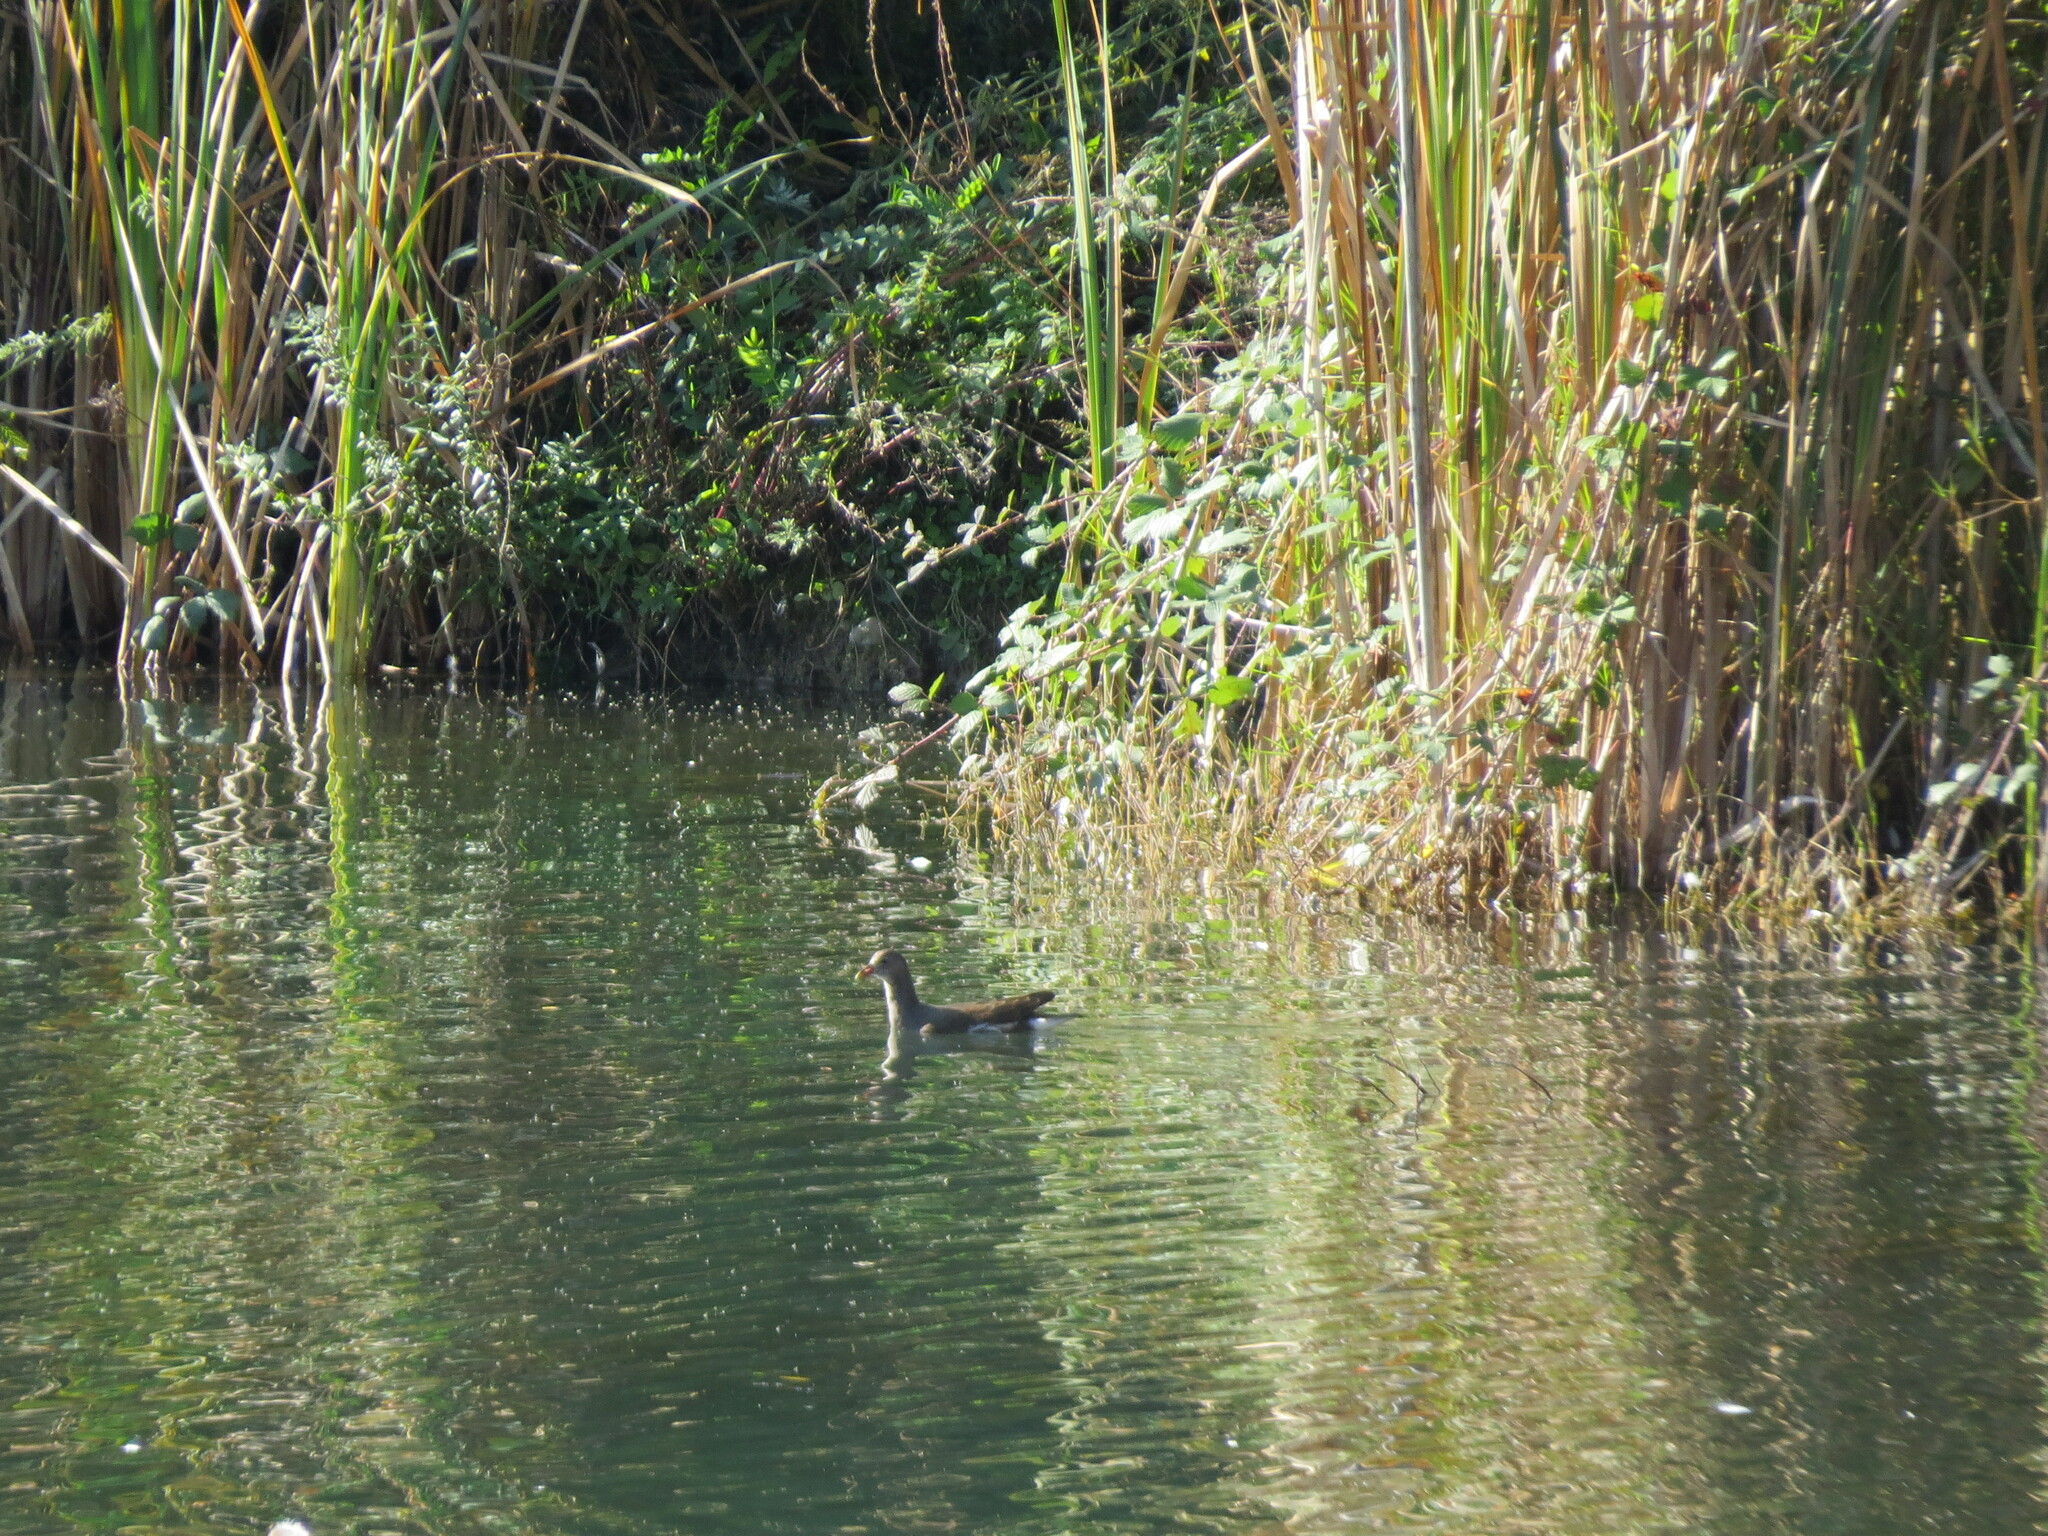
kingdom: Animalia
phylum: Chordata
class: Aves
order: Gruiformes
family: Rallidae
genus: Gallinula
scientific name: Gallinula chloropus
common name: Common moorhen
